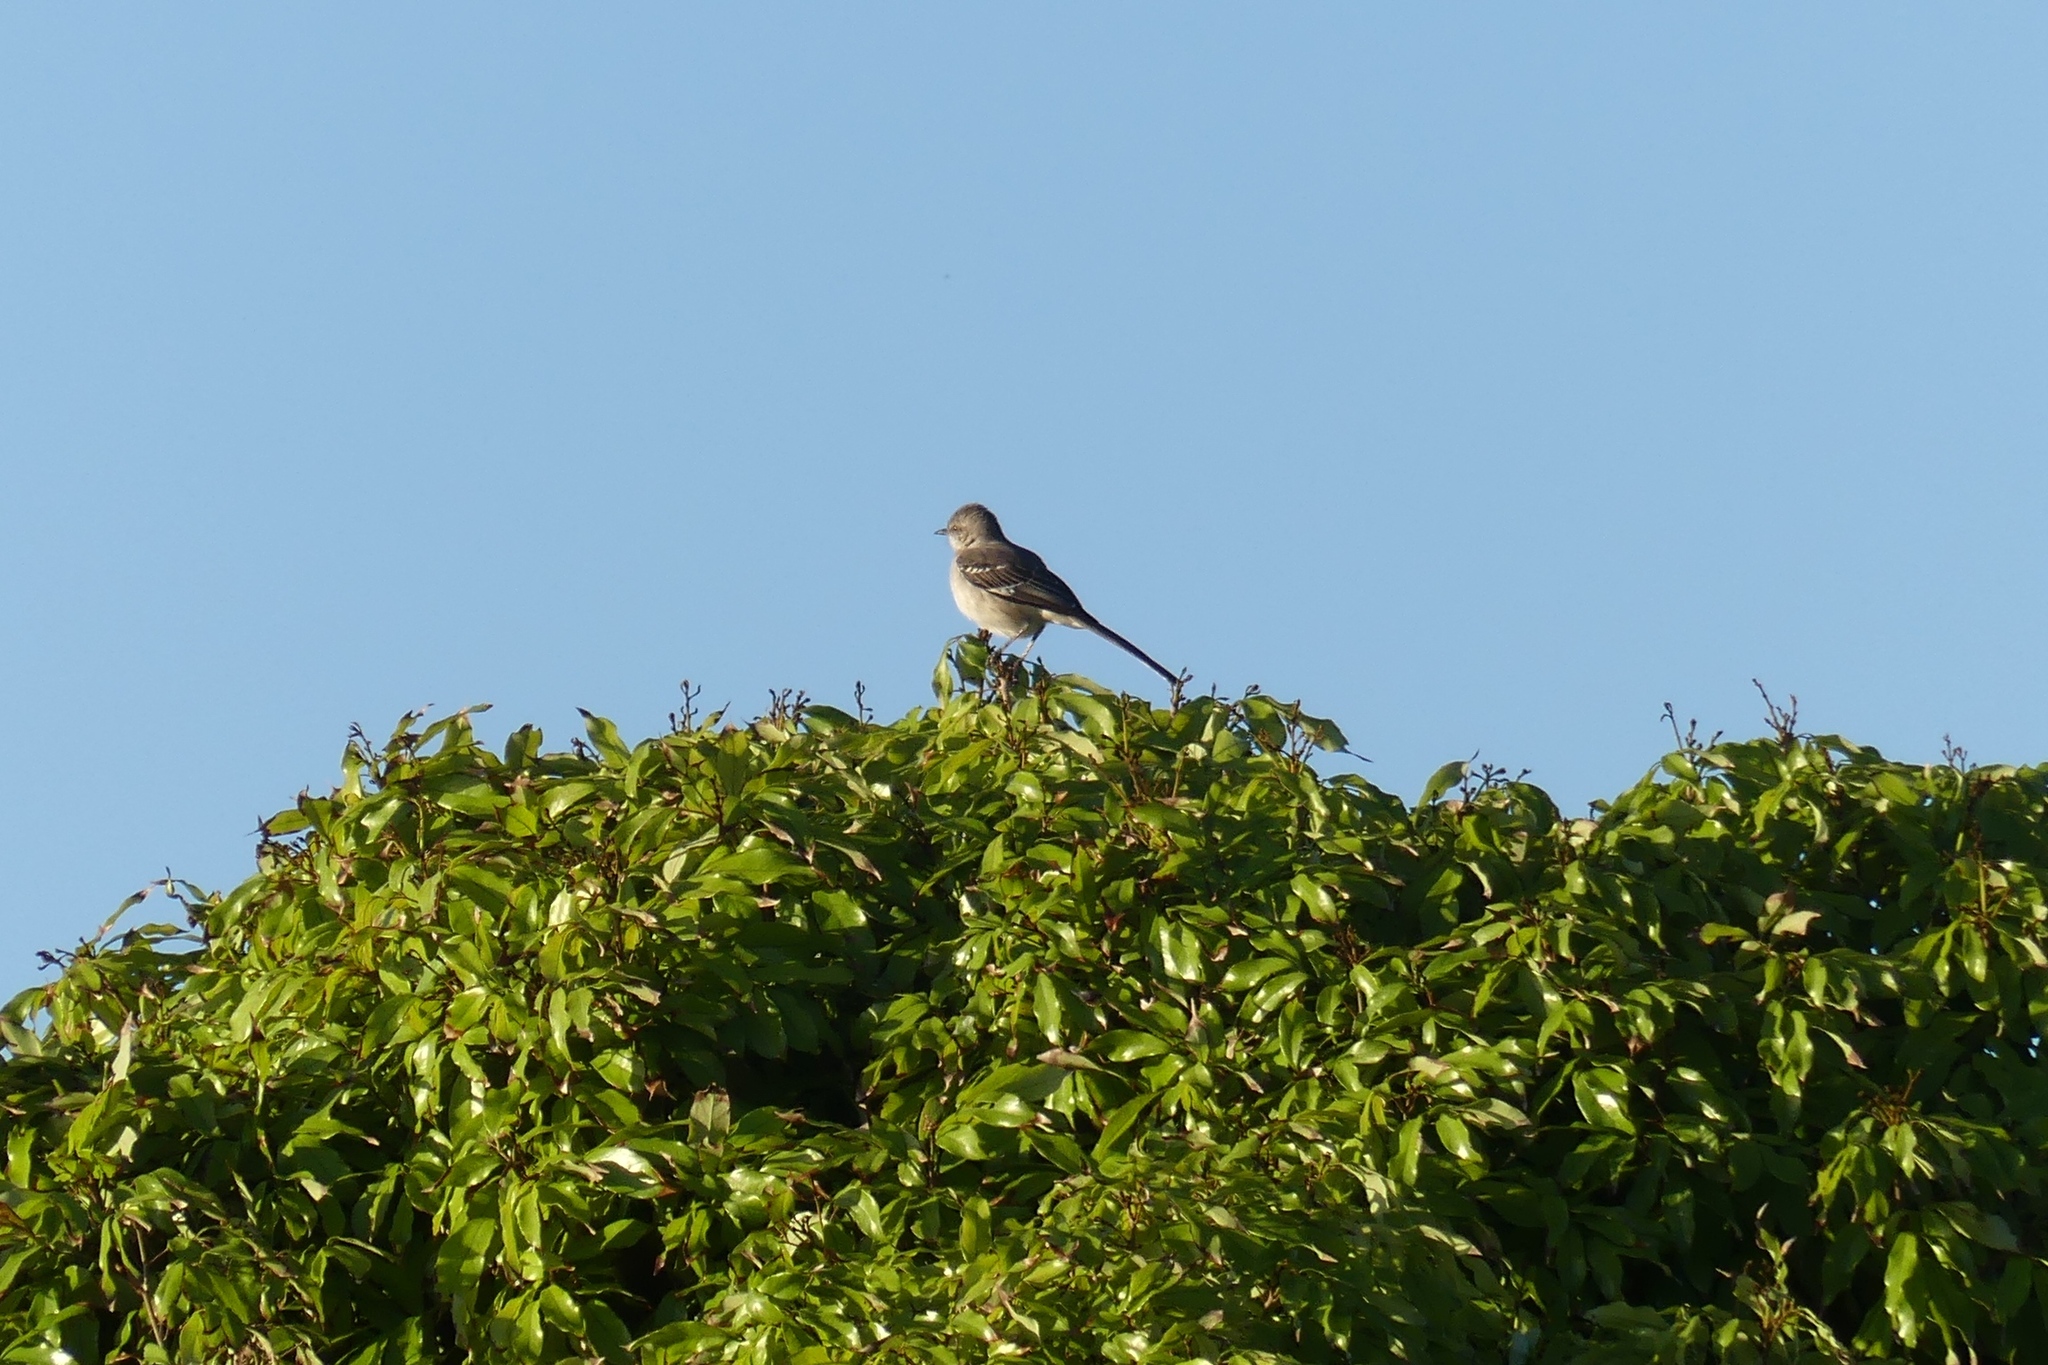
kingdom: Animalia
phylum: Chordata
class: Aves
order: Passeriformes
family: Mimidae
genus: Mimus
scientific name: Mimus polyglottos
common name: Northern mockingbird
